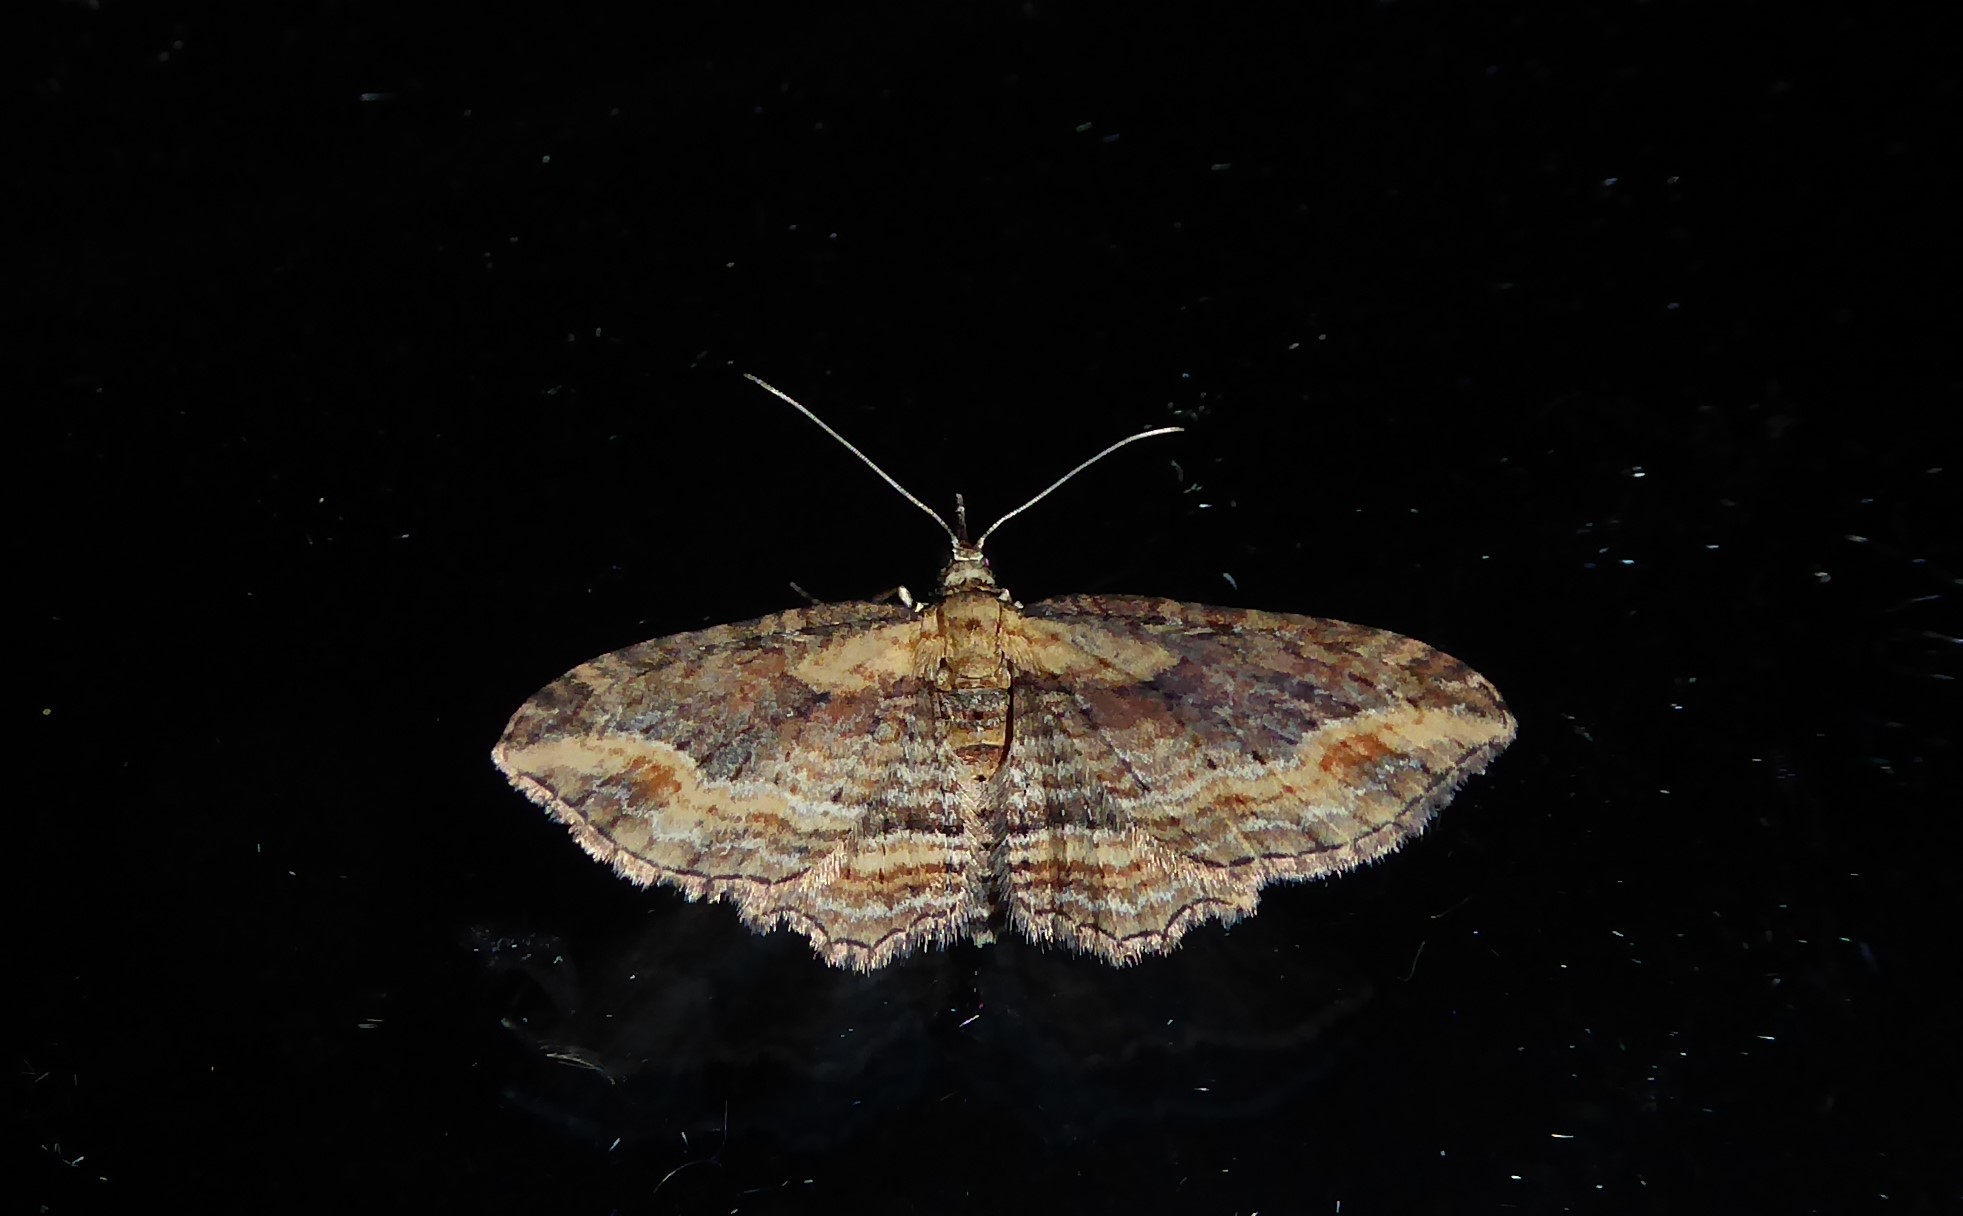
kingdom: Animalia
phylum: Arthropoda
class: Insecta
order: Lepidoptera
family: Geometridae
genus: Chloroclystis
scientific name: Chloroclystis filata
